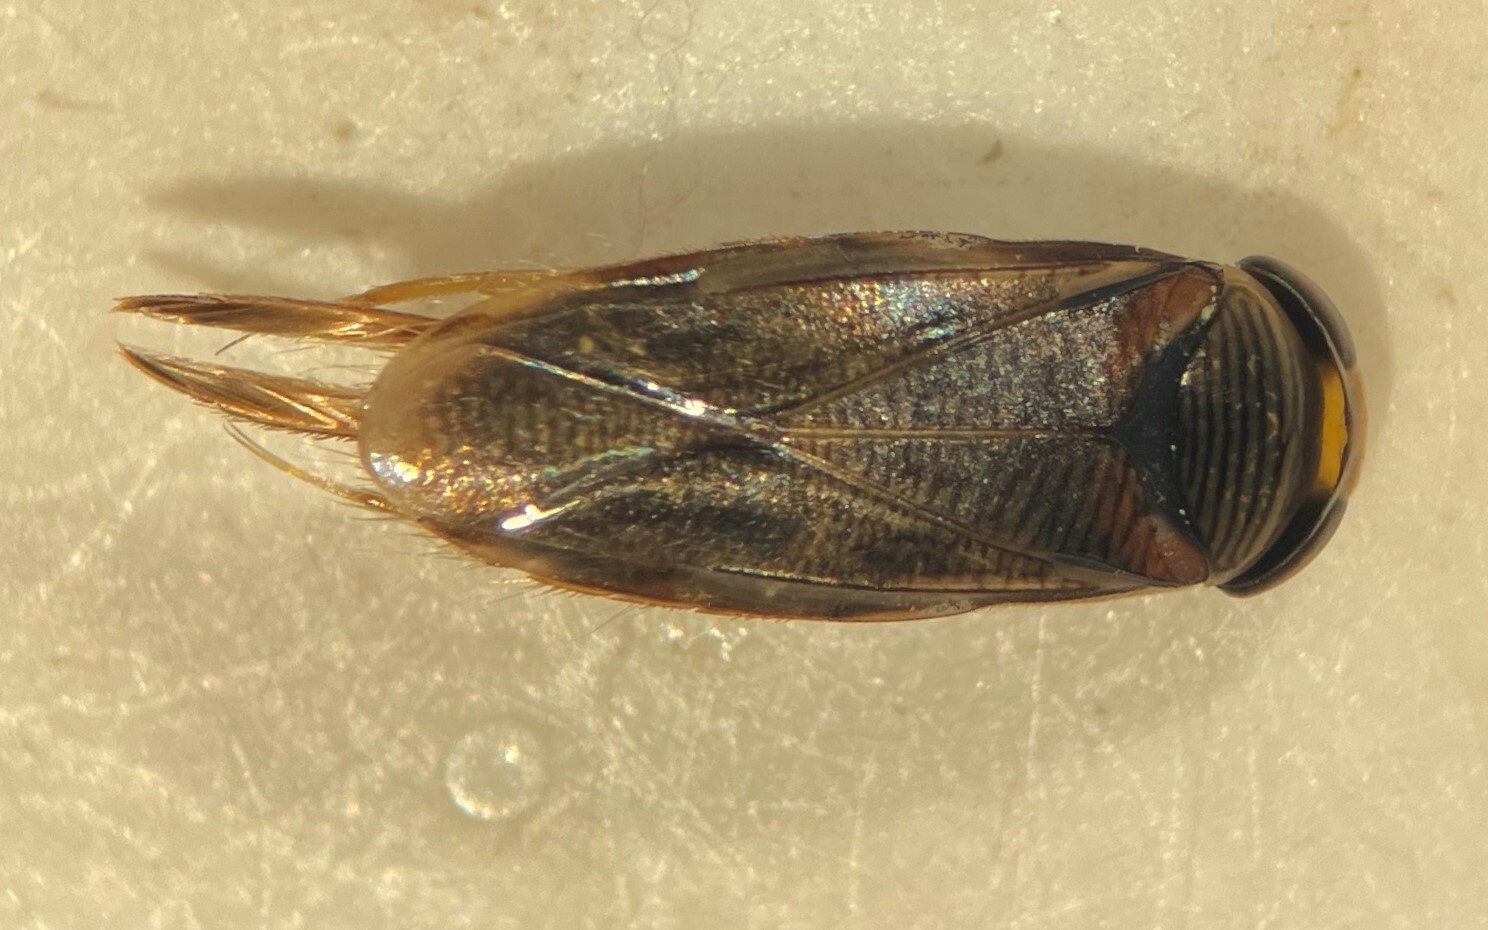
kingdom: Animalia
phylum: Arthropoda
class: Insecta
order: Hemiptera
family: Corixidae
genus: Morphocorixa
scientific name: Morphocorixa compacta
